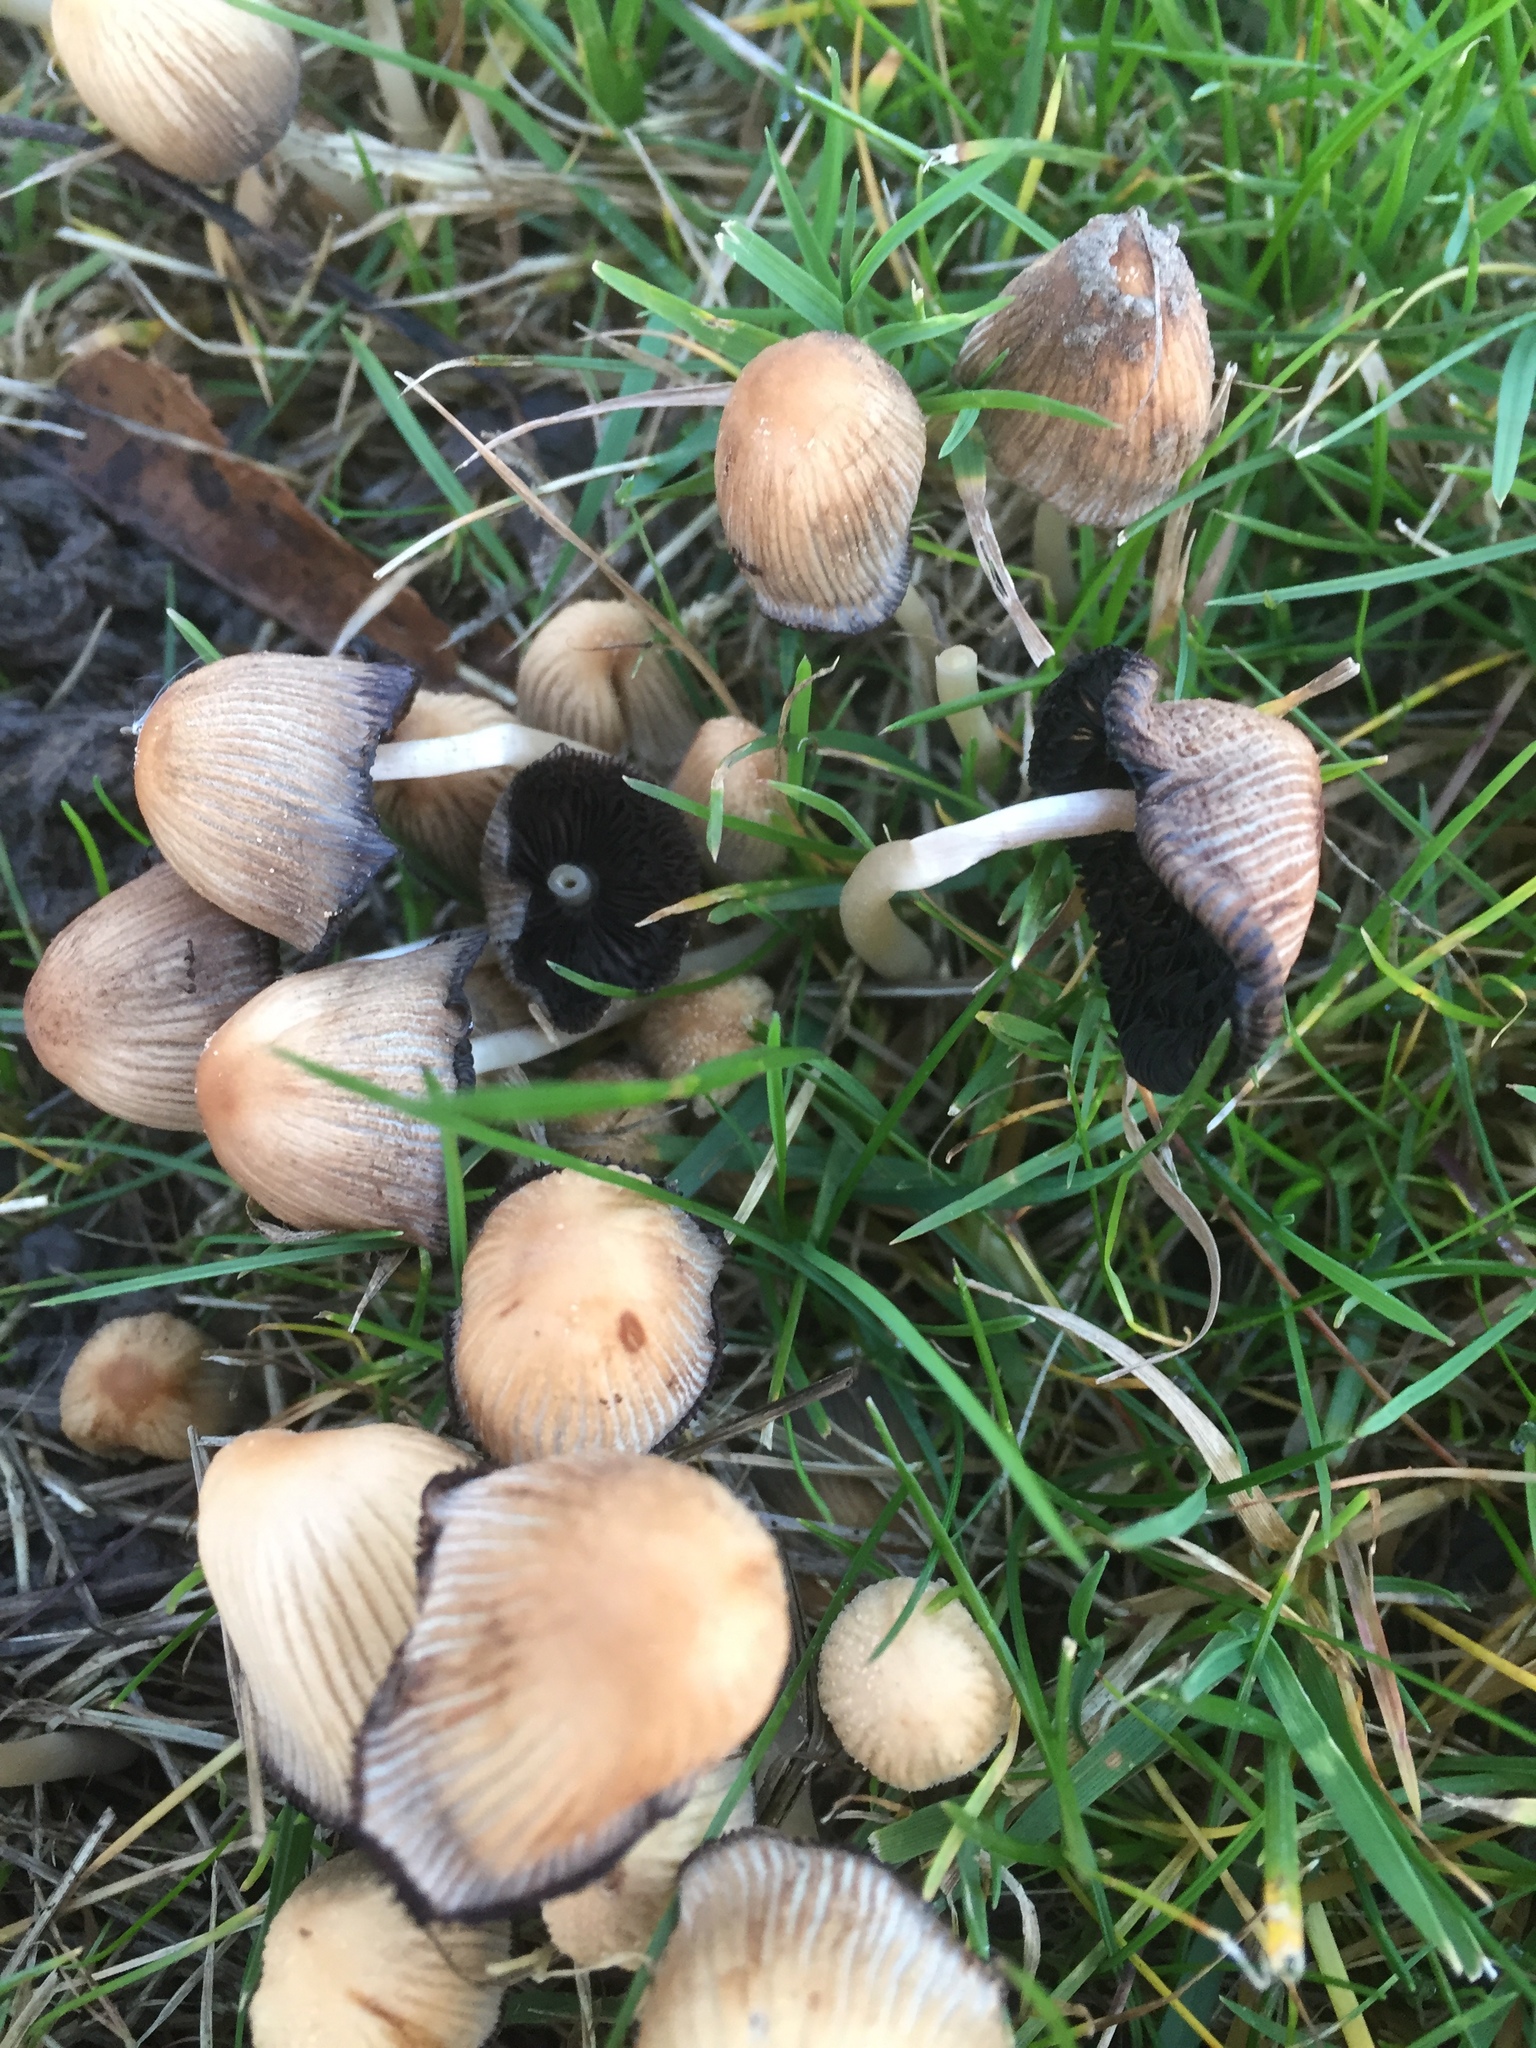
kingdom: Fungi
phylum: Basidiomycota
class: Agaricomycetes
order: Agaricales
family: Psathyrellaceae
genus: Coprinellus
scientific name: Coprinellus micaceus
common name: Glistening ink-cap
